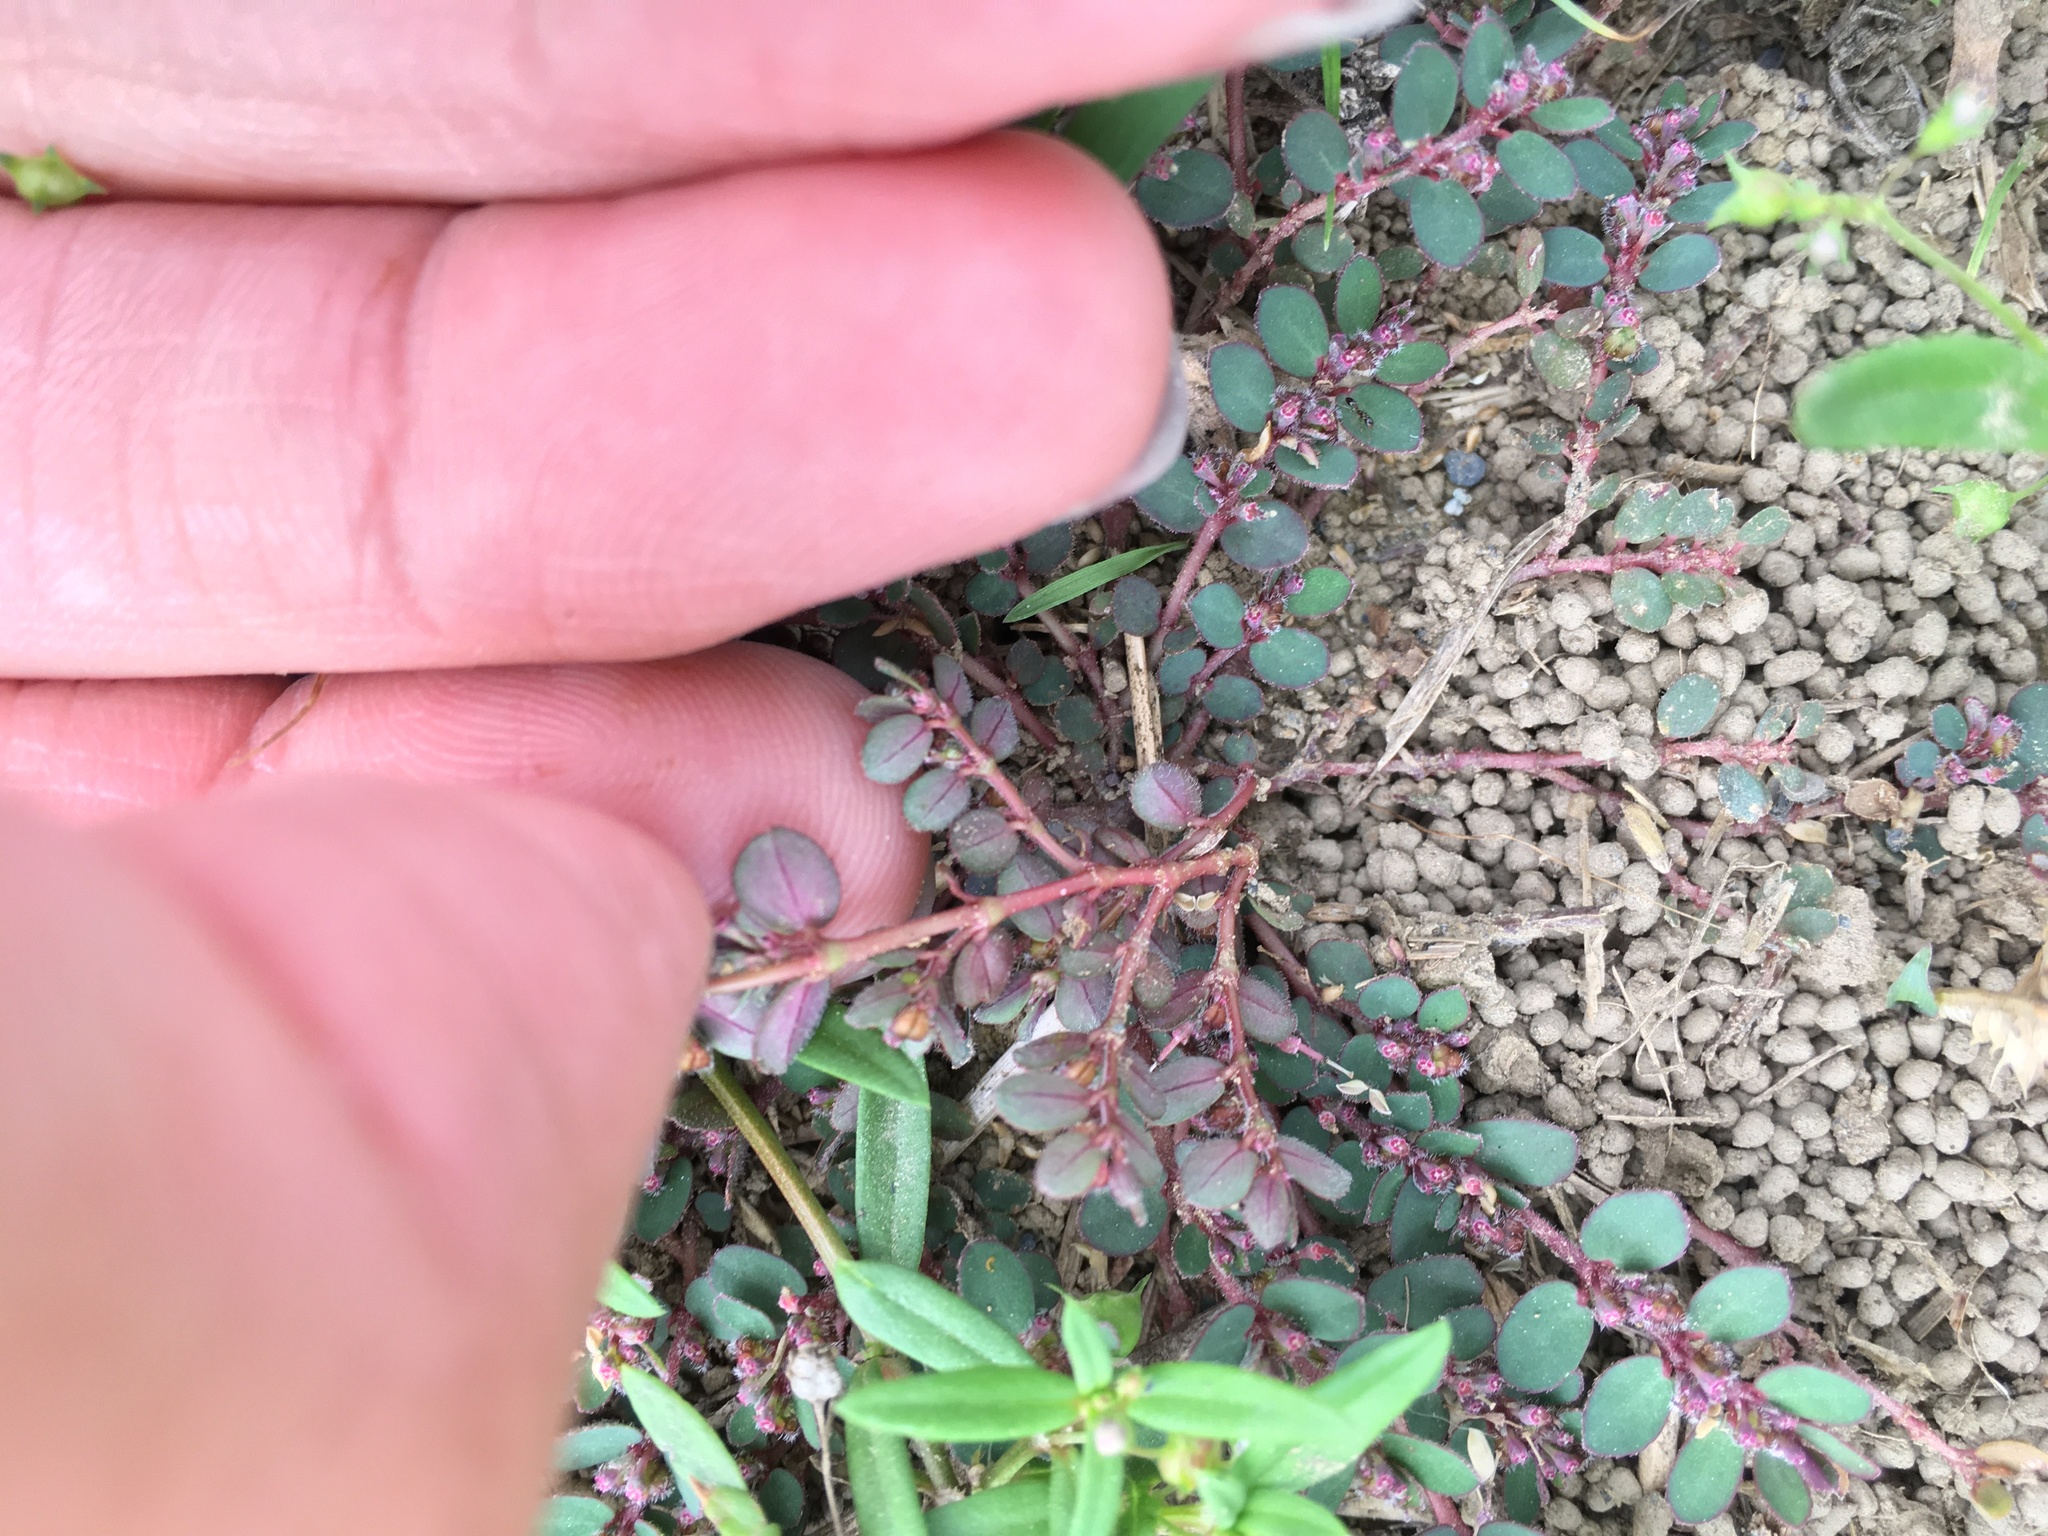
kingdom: Plantae
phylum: Tracheophyta
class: Magnoliopsida
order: Malpighiales
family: Euphorbiaceae
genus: Euphorbia
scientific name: Euphorbia prostrata
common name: Prostrate sandmat
